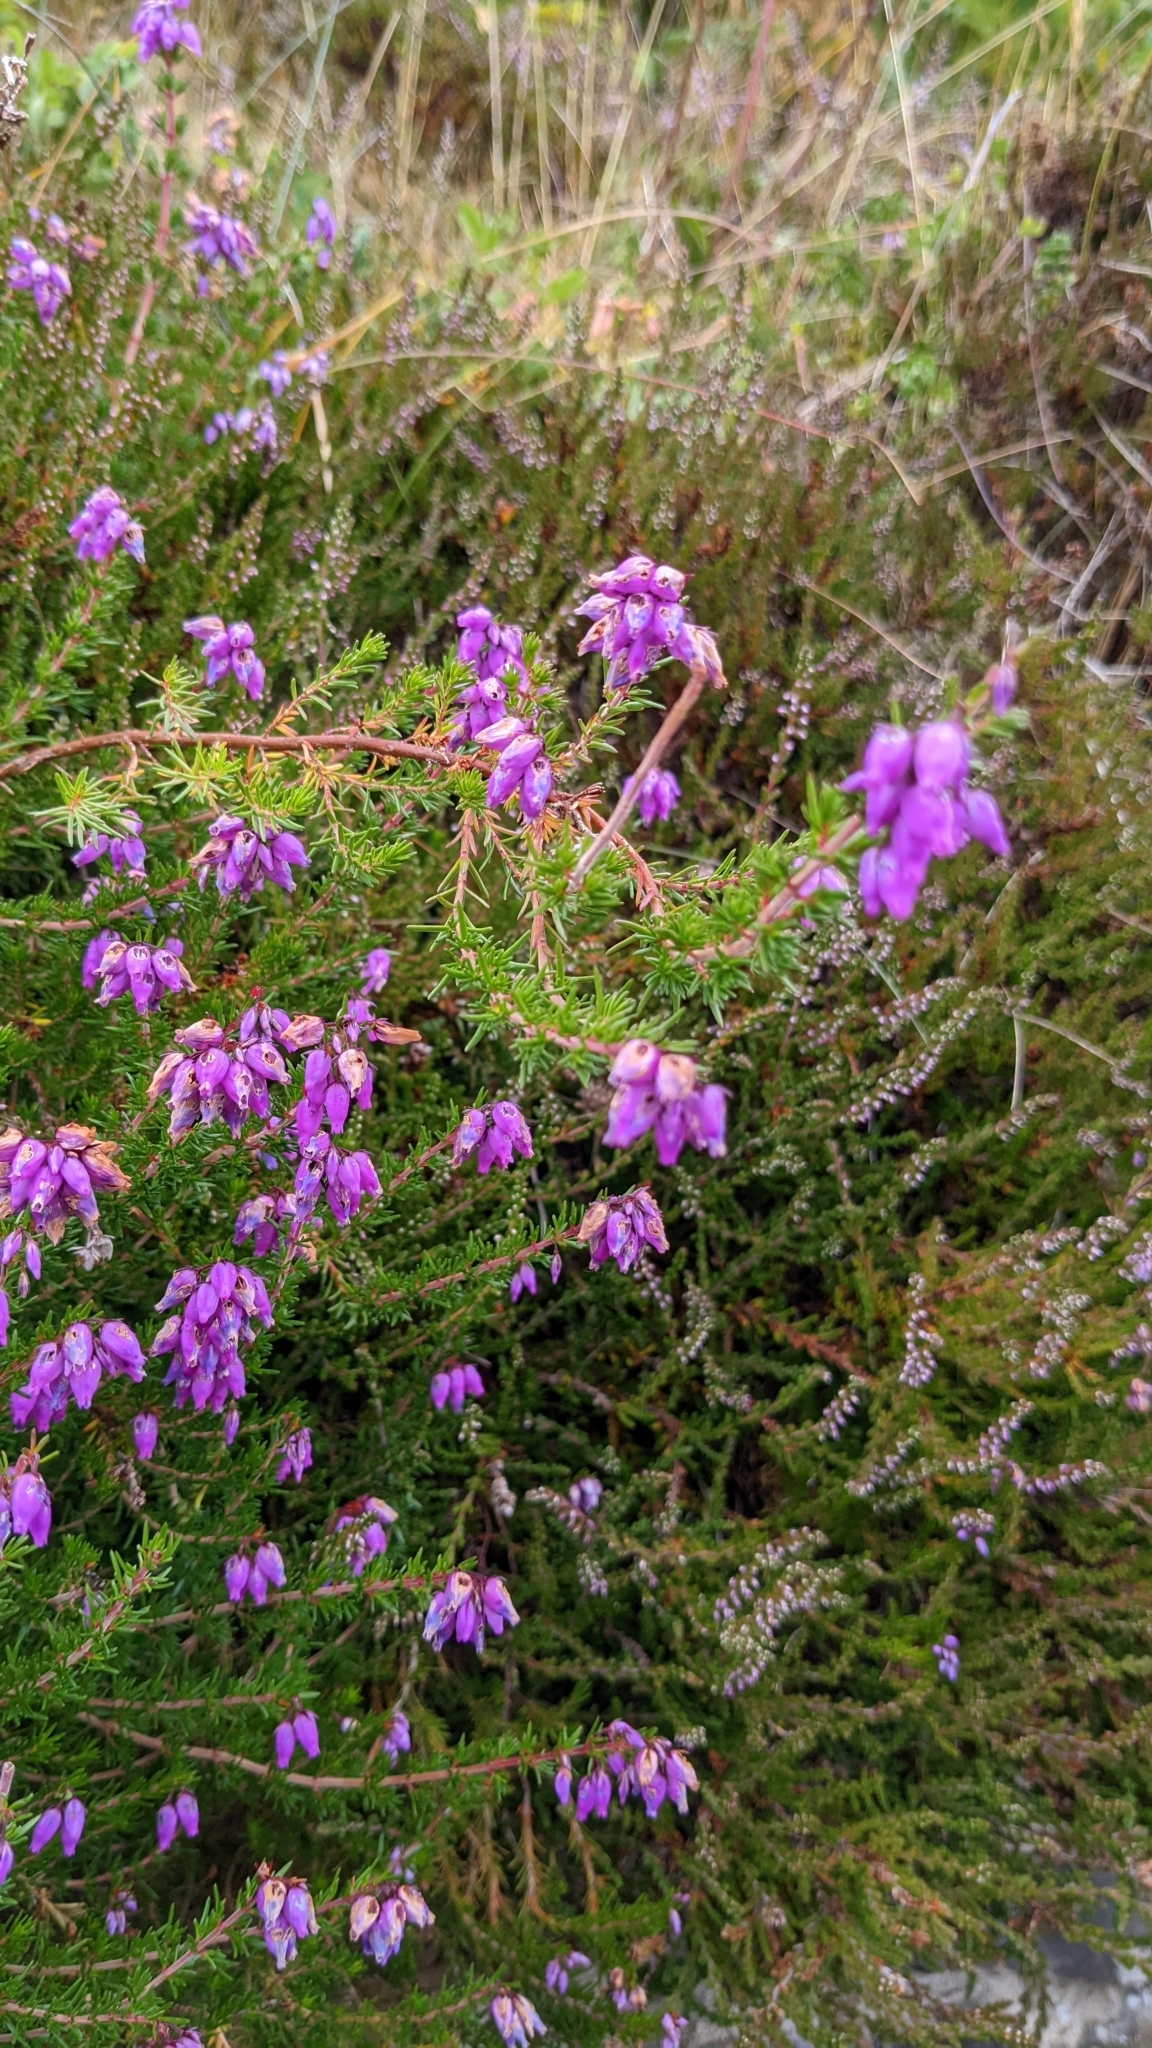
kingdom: Plantae
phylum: Tracheophyta
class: Magnoliopsida
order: Ericales
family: Ericaceae
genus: Erica
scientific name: Erica cinerea
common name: Bell heather
